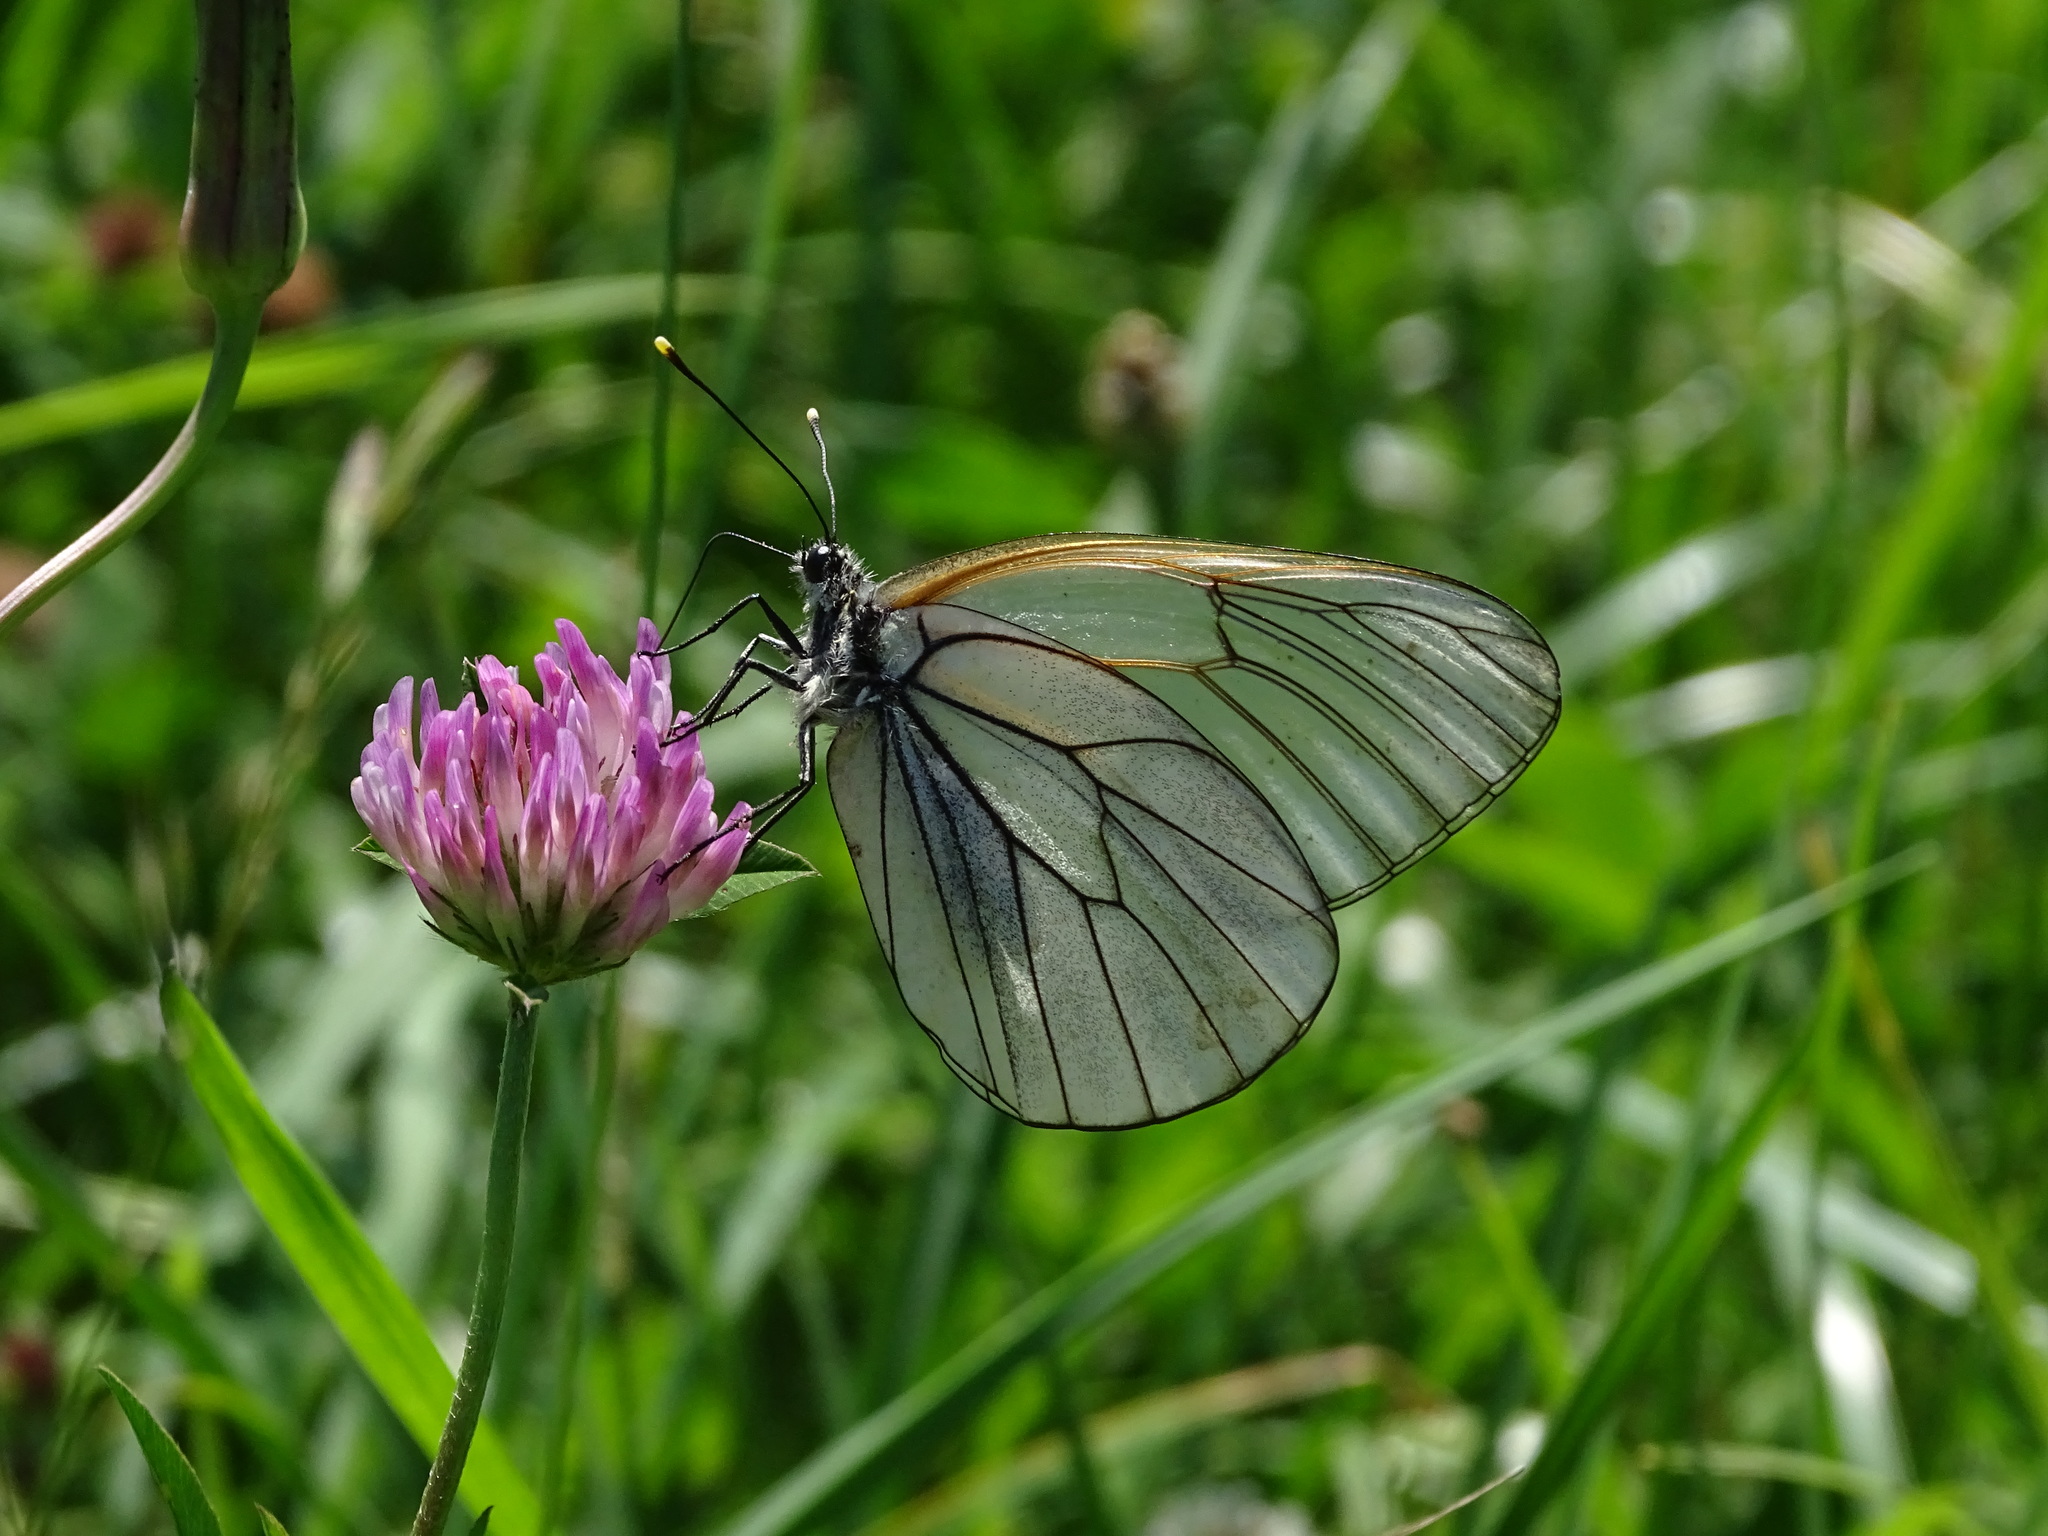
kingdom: Animalia
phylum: Arthropoda
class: Insecta
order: Lepidoptera
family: Pieridae
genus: Aporia
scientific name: Aporia crataegi
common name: Black-veined white
